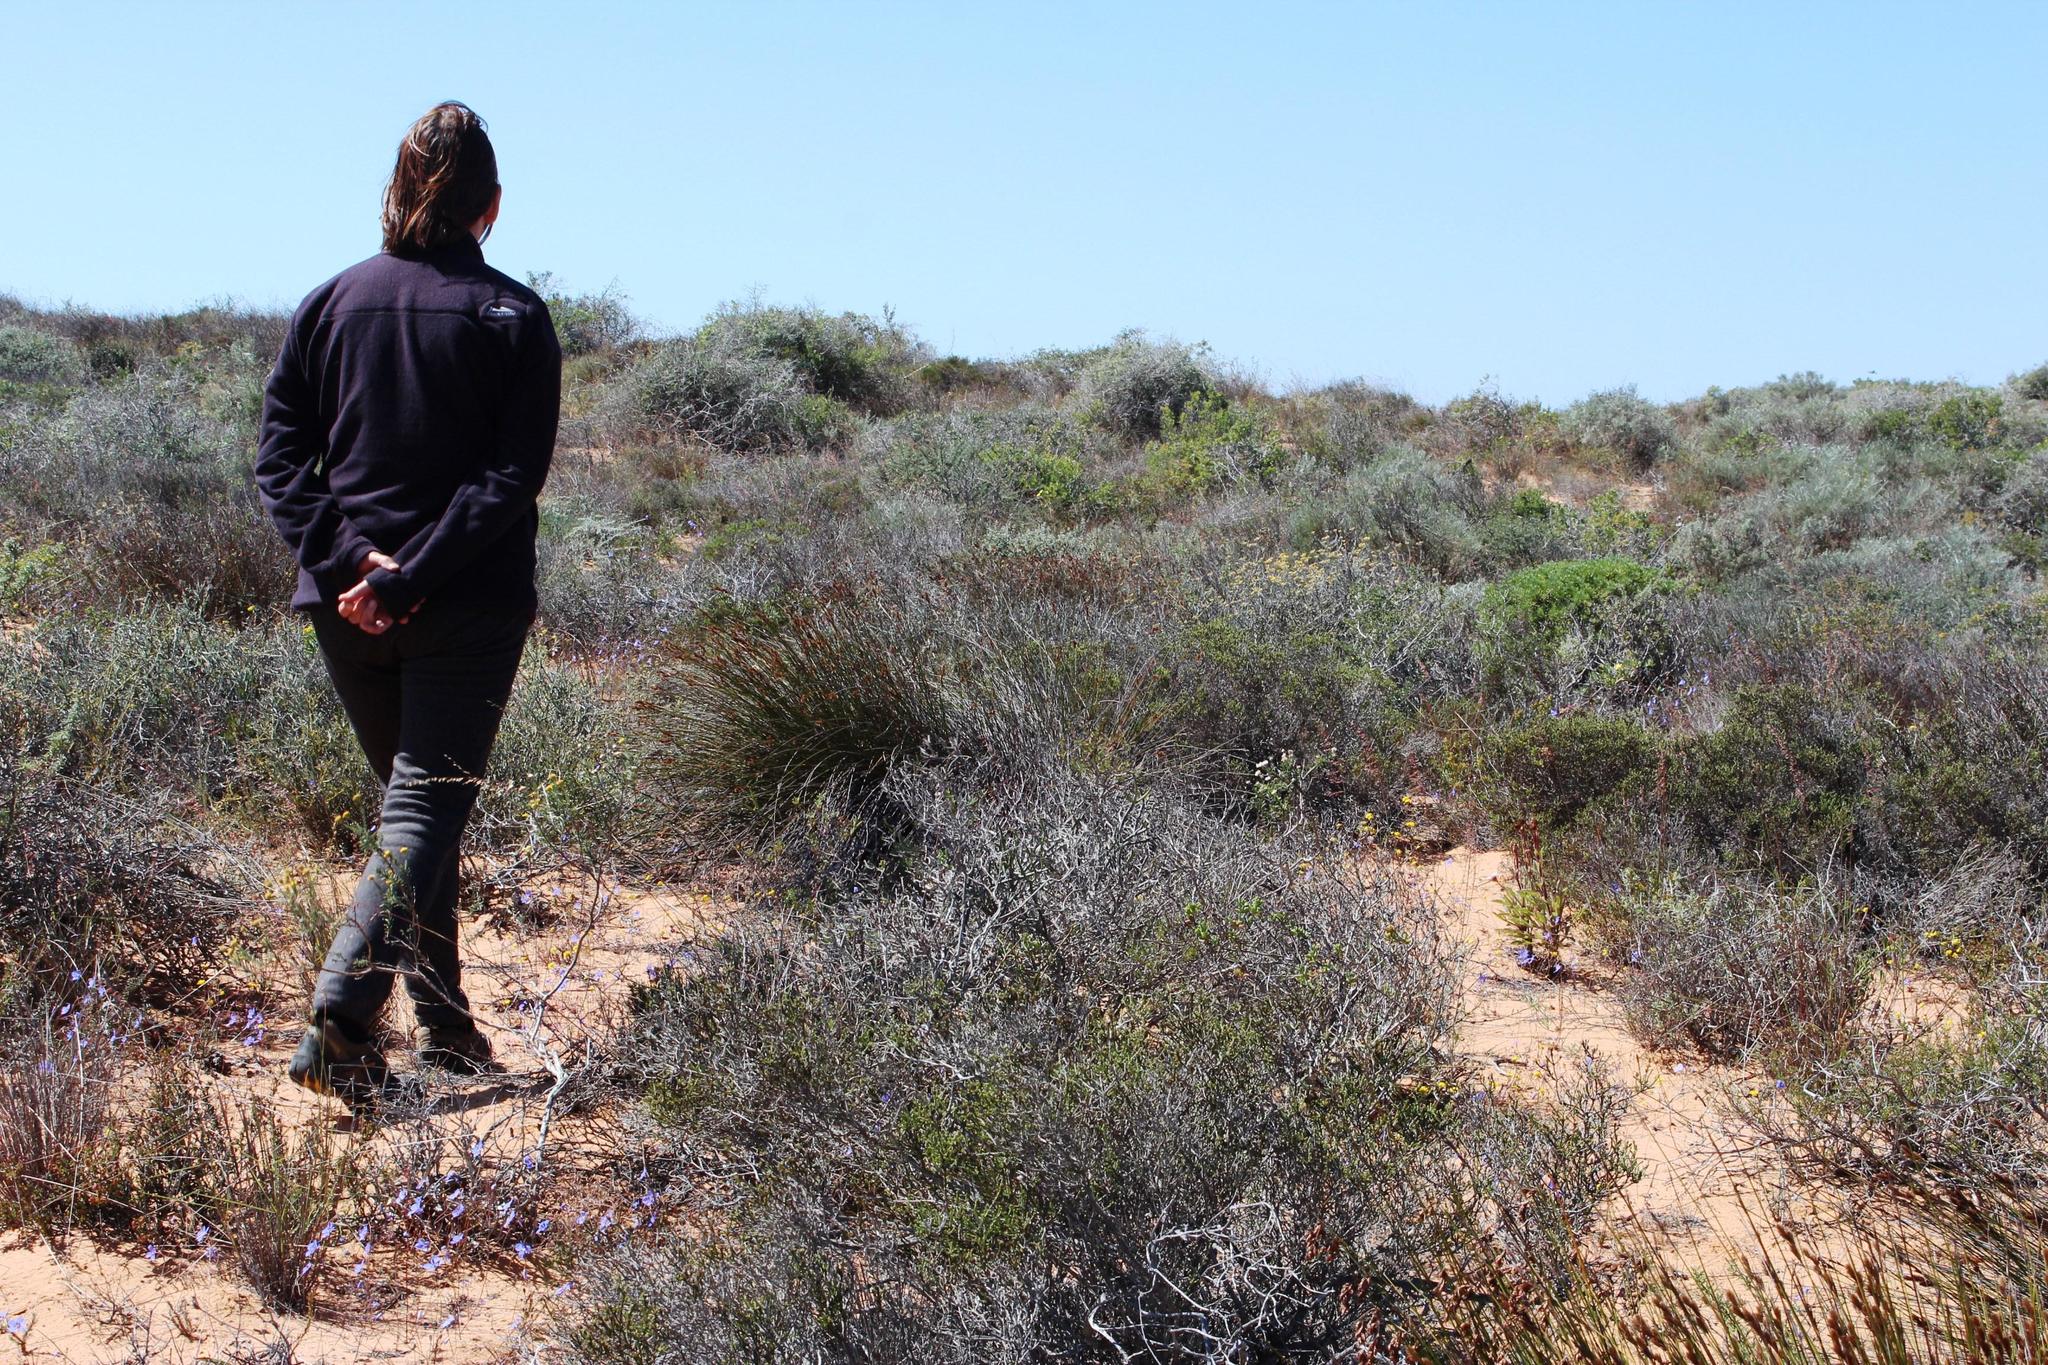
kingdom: Plantae
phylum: Tracheophyta
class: Liliopsida
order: Poales
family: Restionaceae
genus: Thamnochortus
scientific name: Thamnochortus bachmannii
